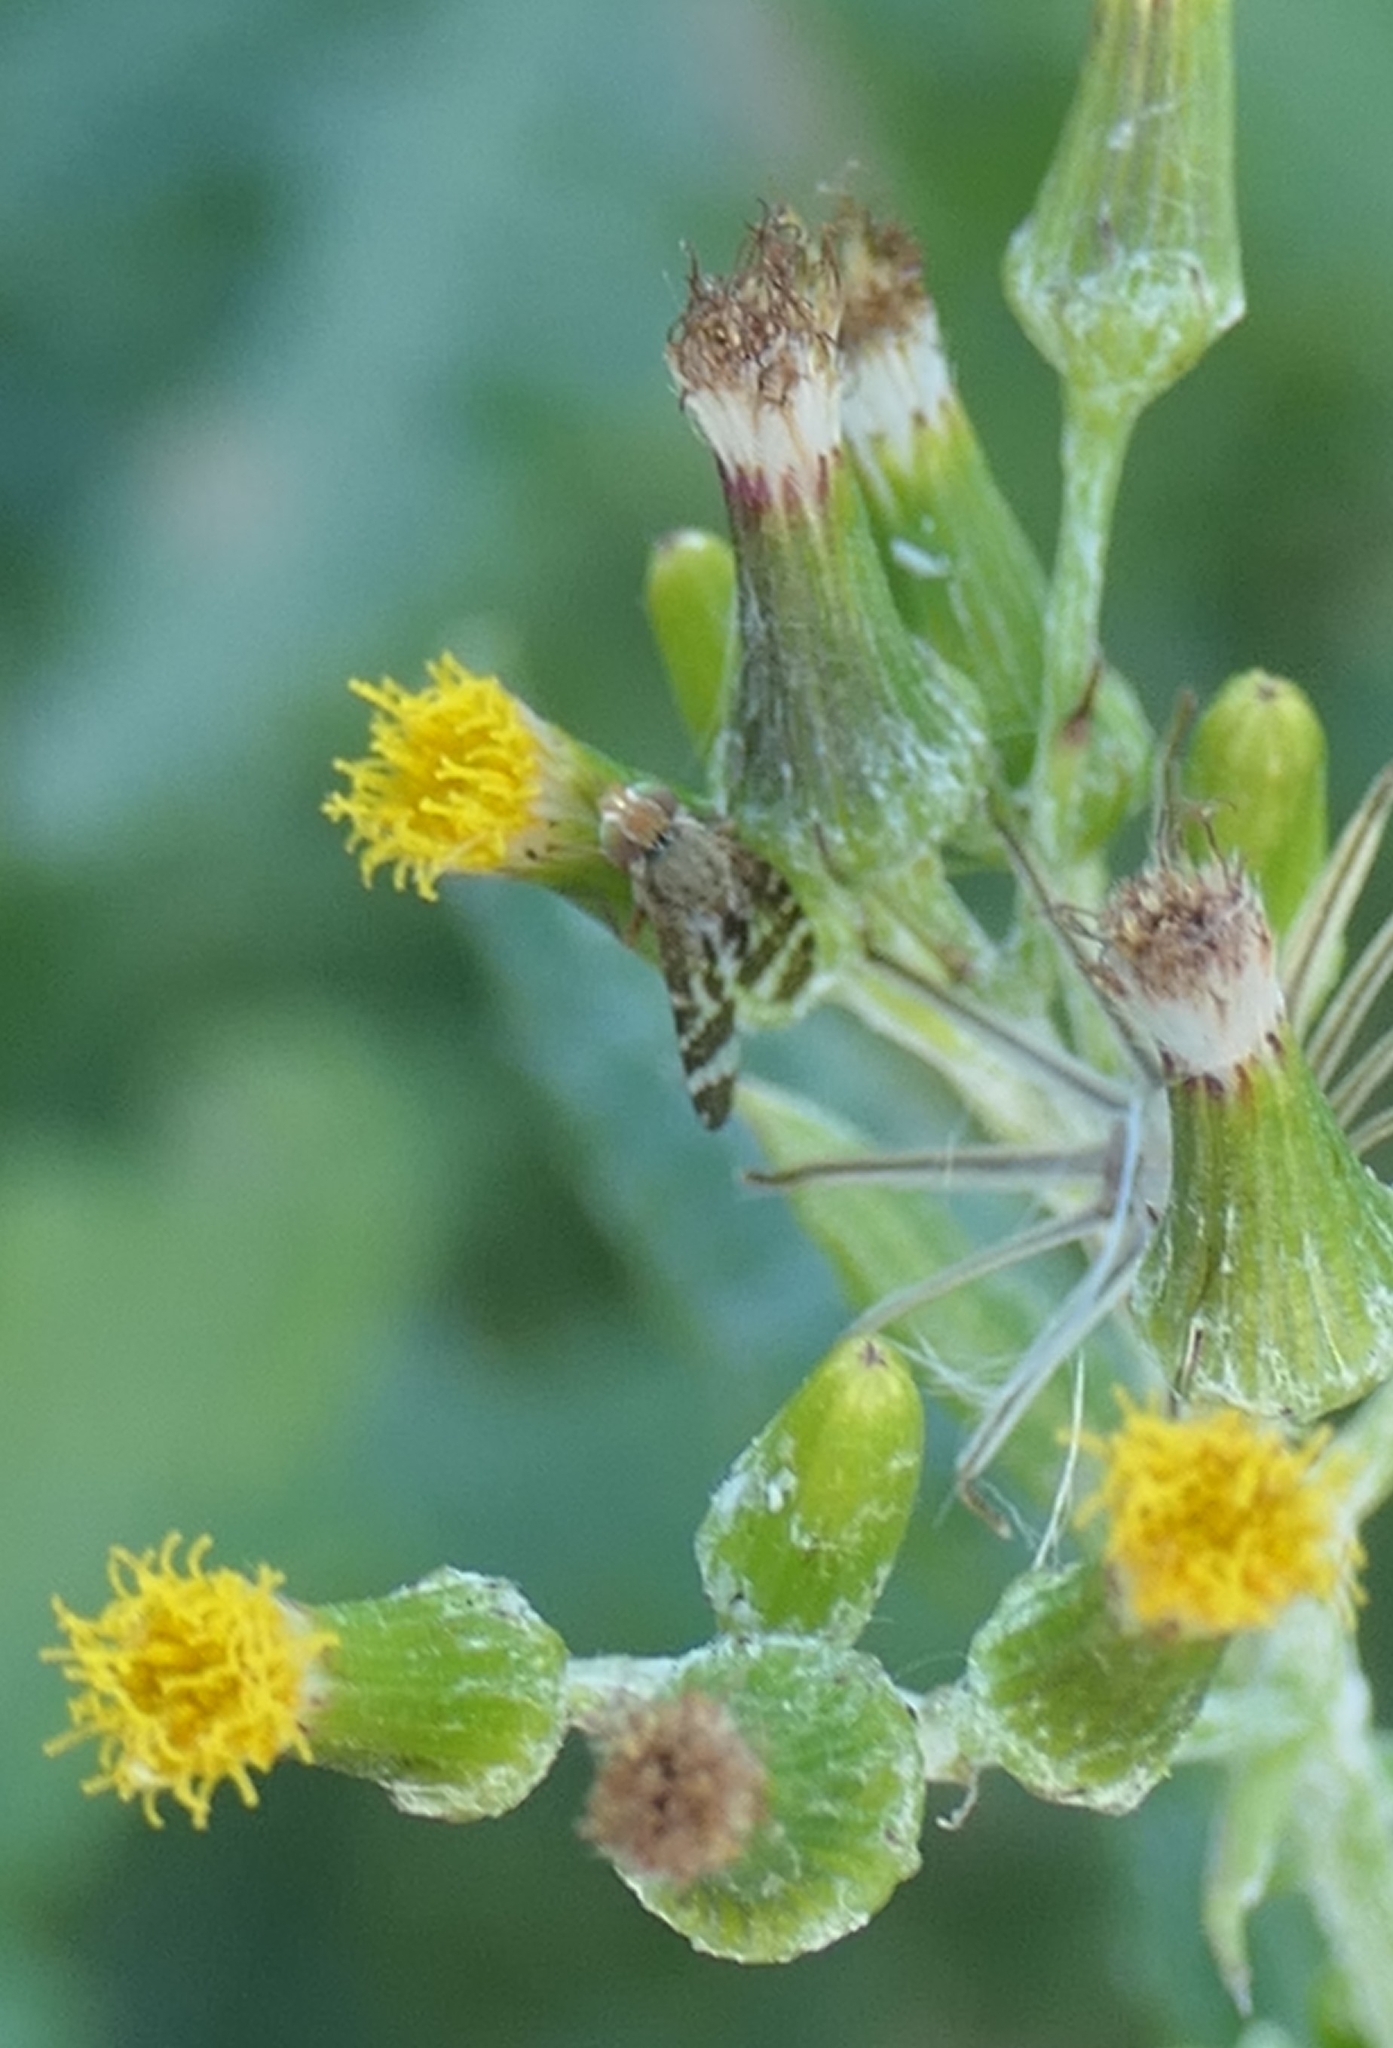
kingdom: Animalia
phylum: Arthropoda
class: Insecta
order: Diptera
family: Tephritidae
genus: Sphenella
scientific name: Sphenella
